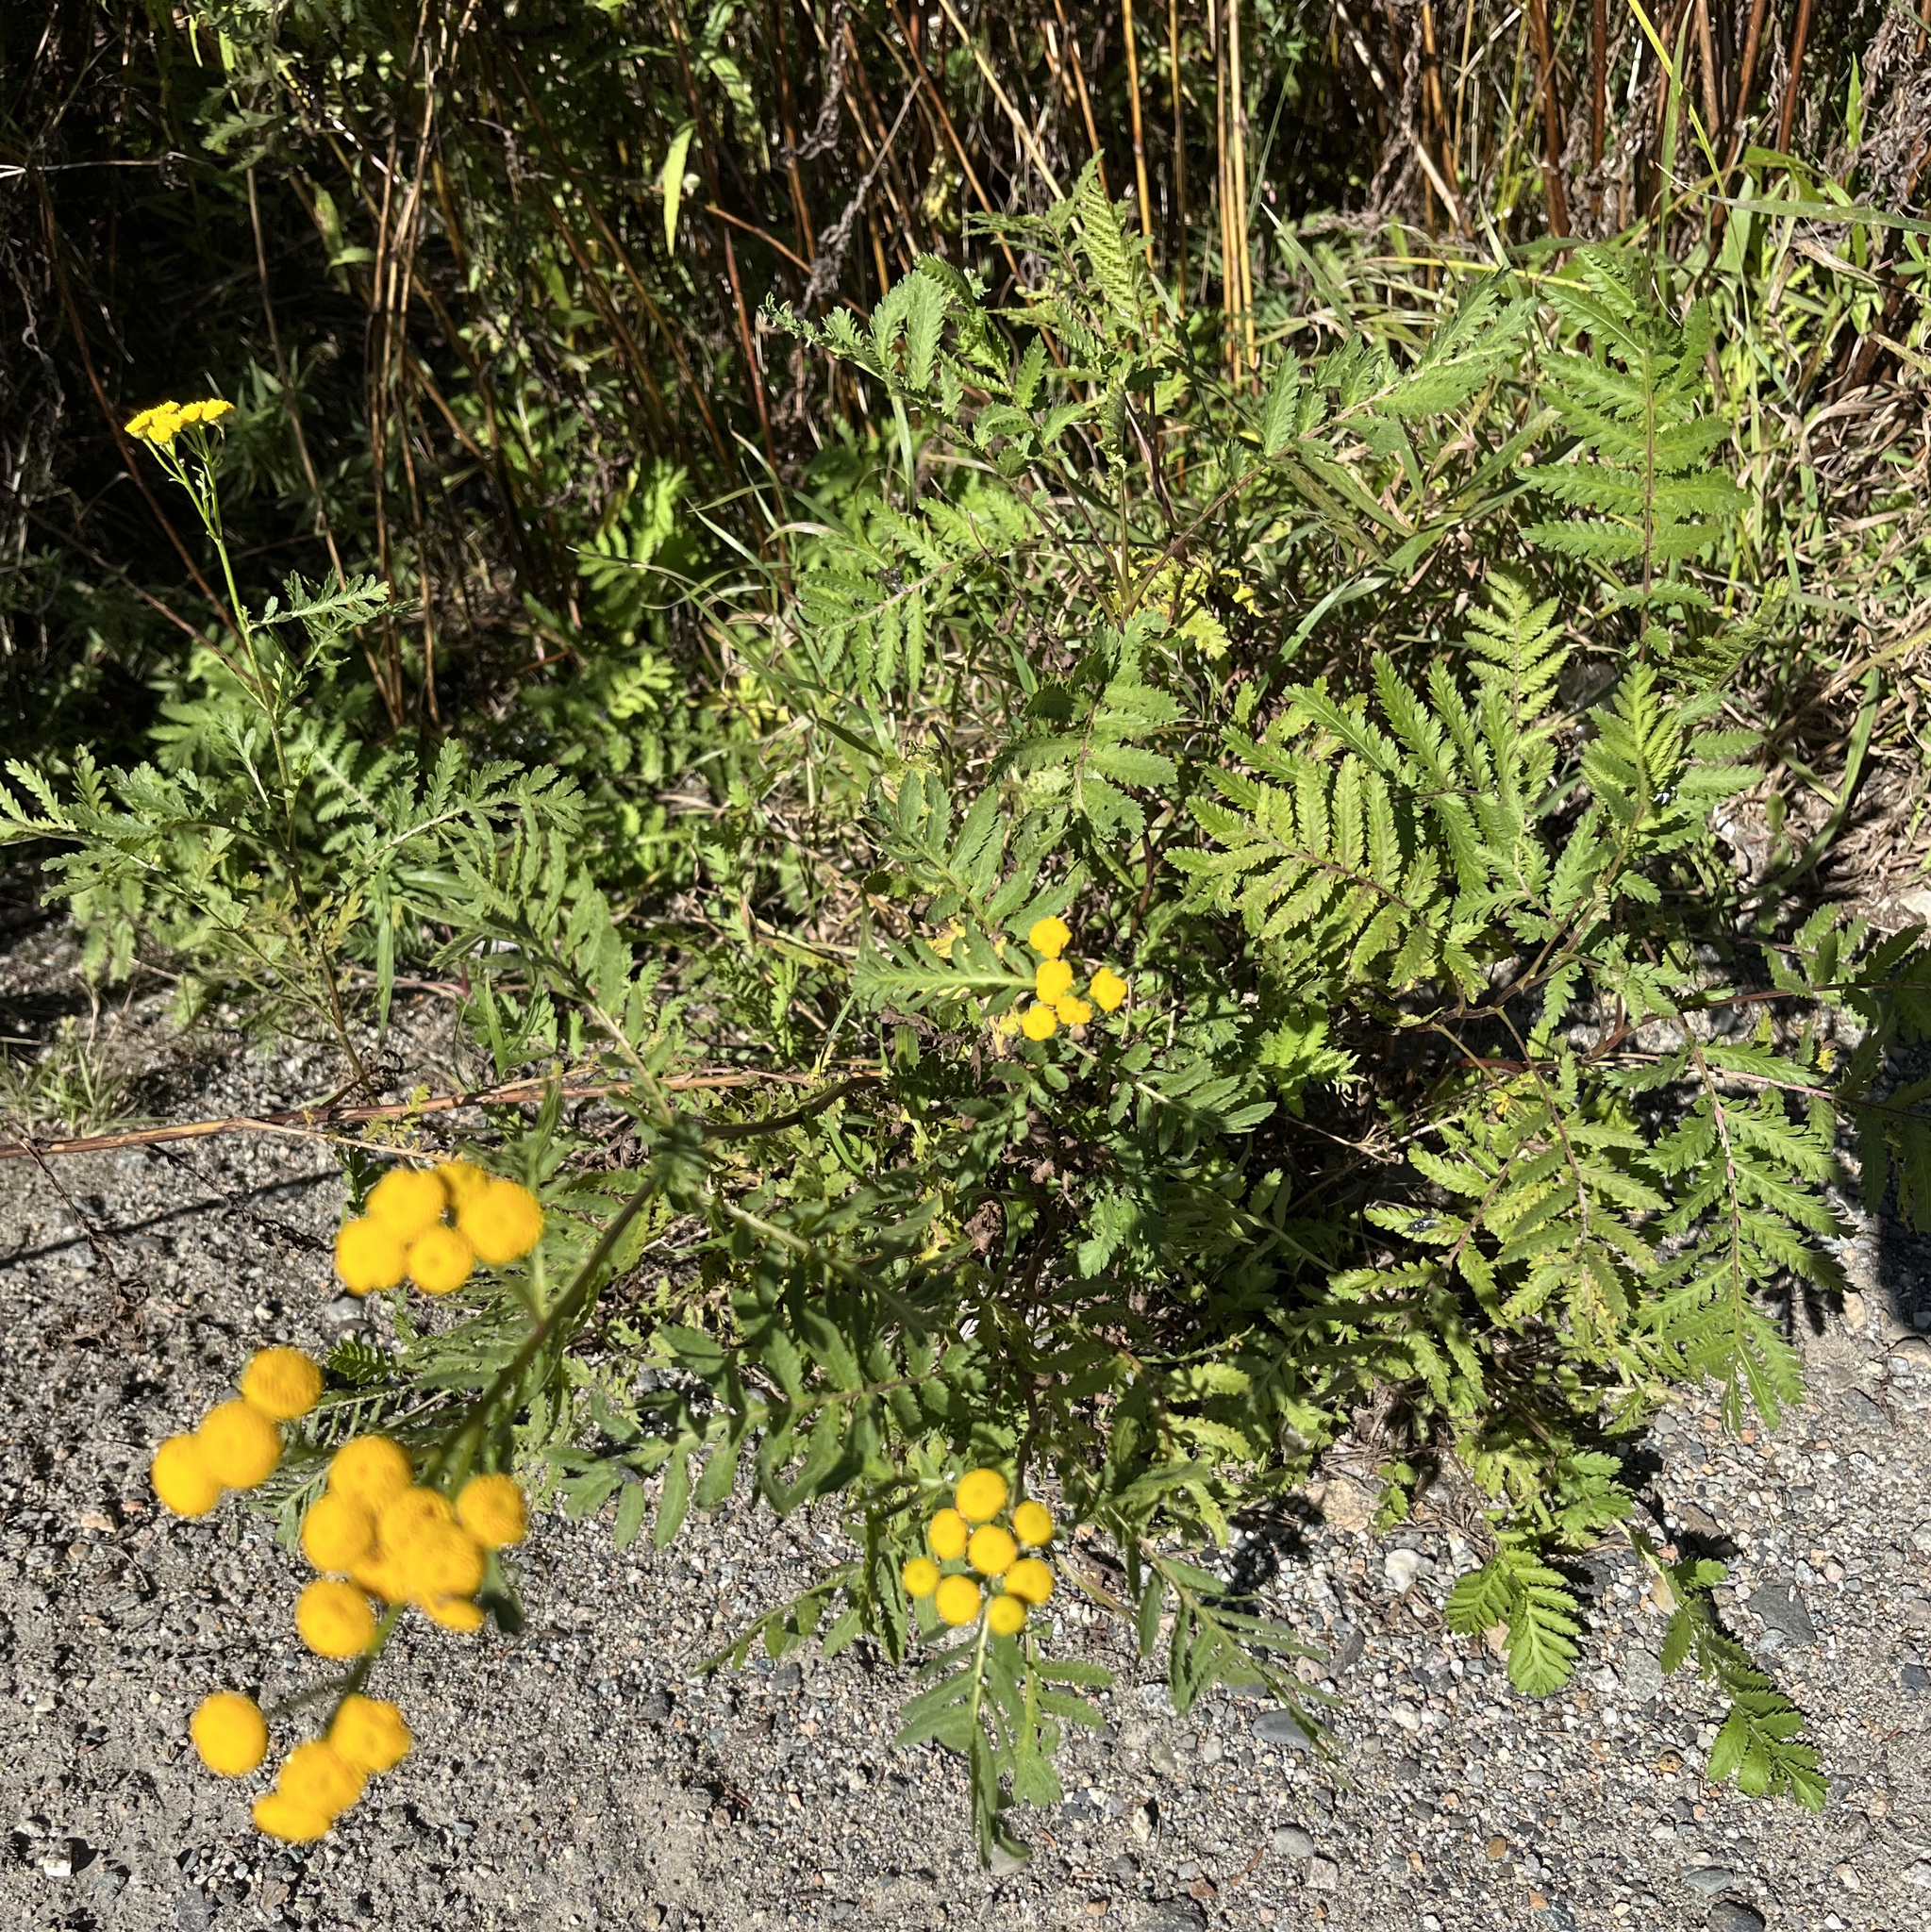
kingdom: Plantae
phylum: Tracheophyta
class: Magnoliopsida
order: Asterales
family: Asteraceae
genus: Tanacetum
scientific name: Tanacetum vulgare
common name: Common tansy
